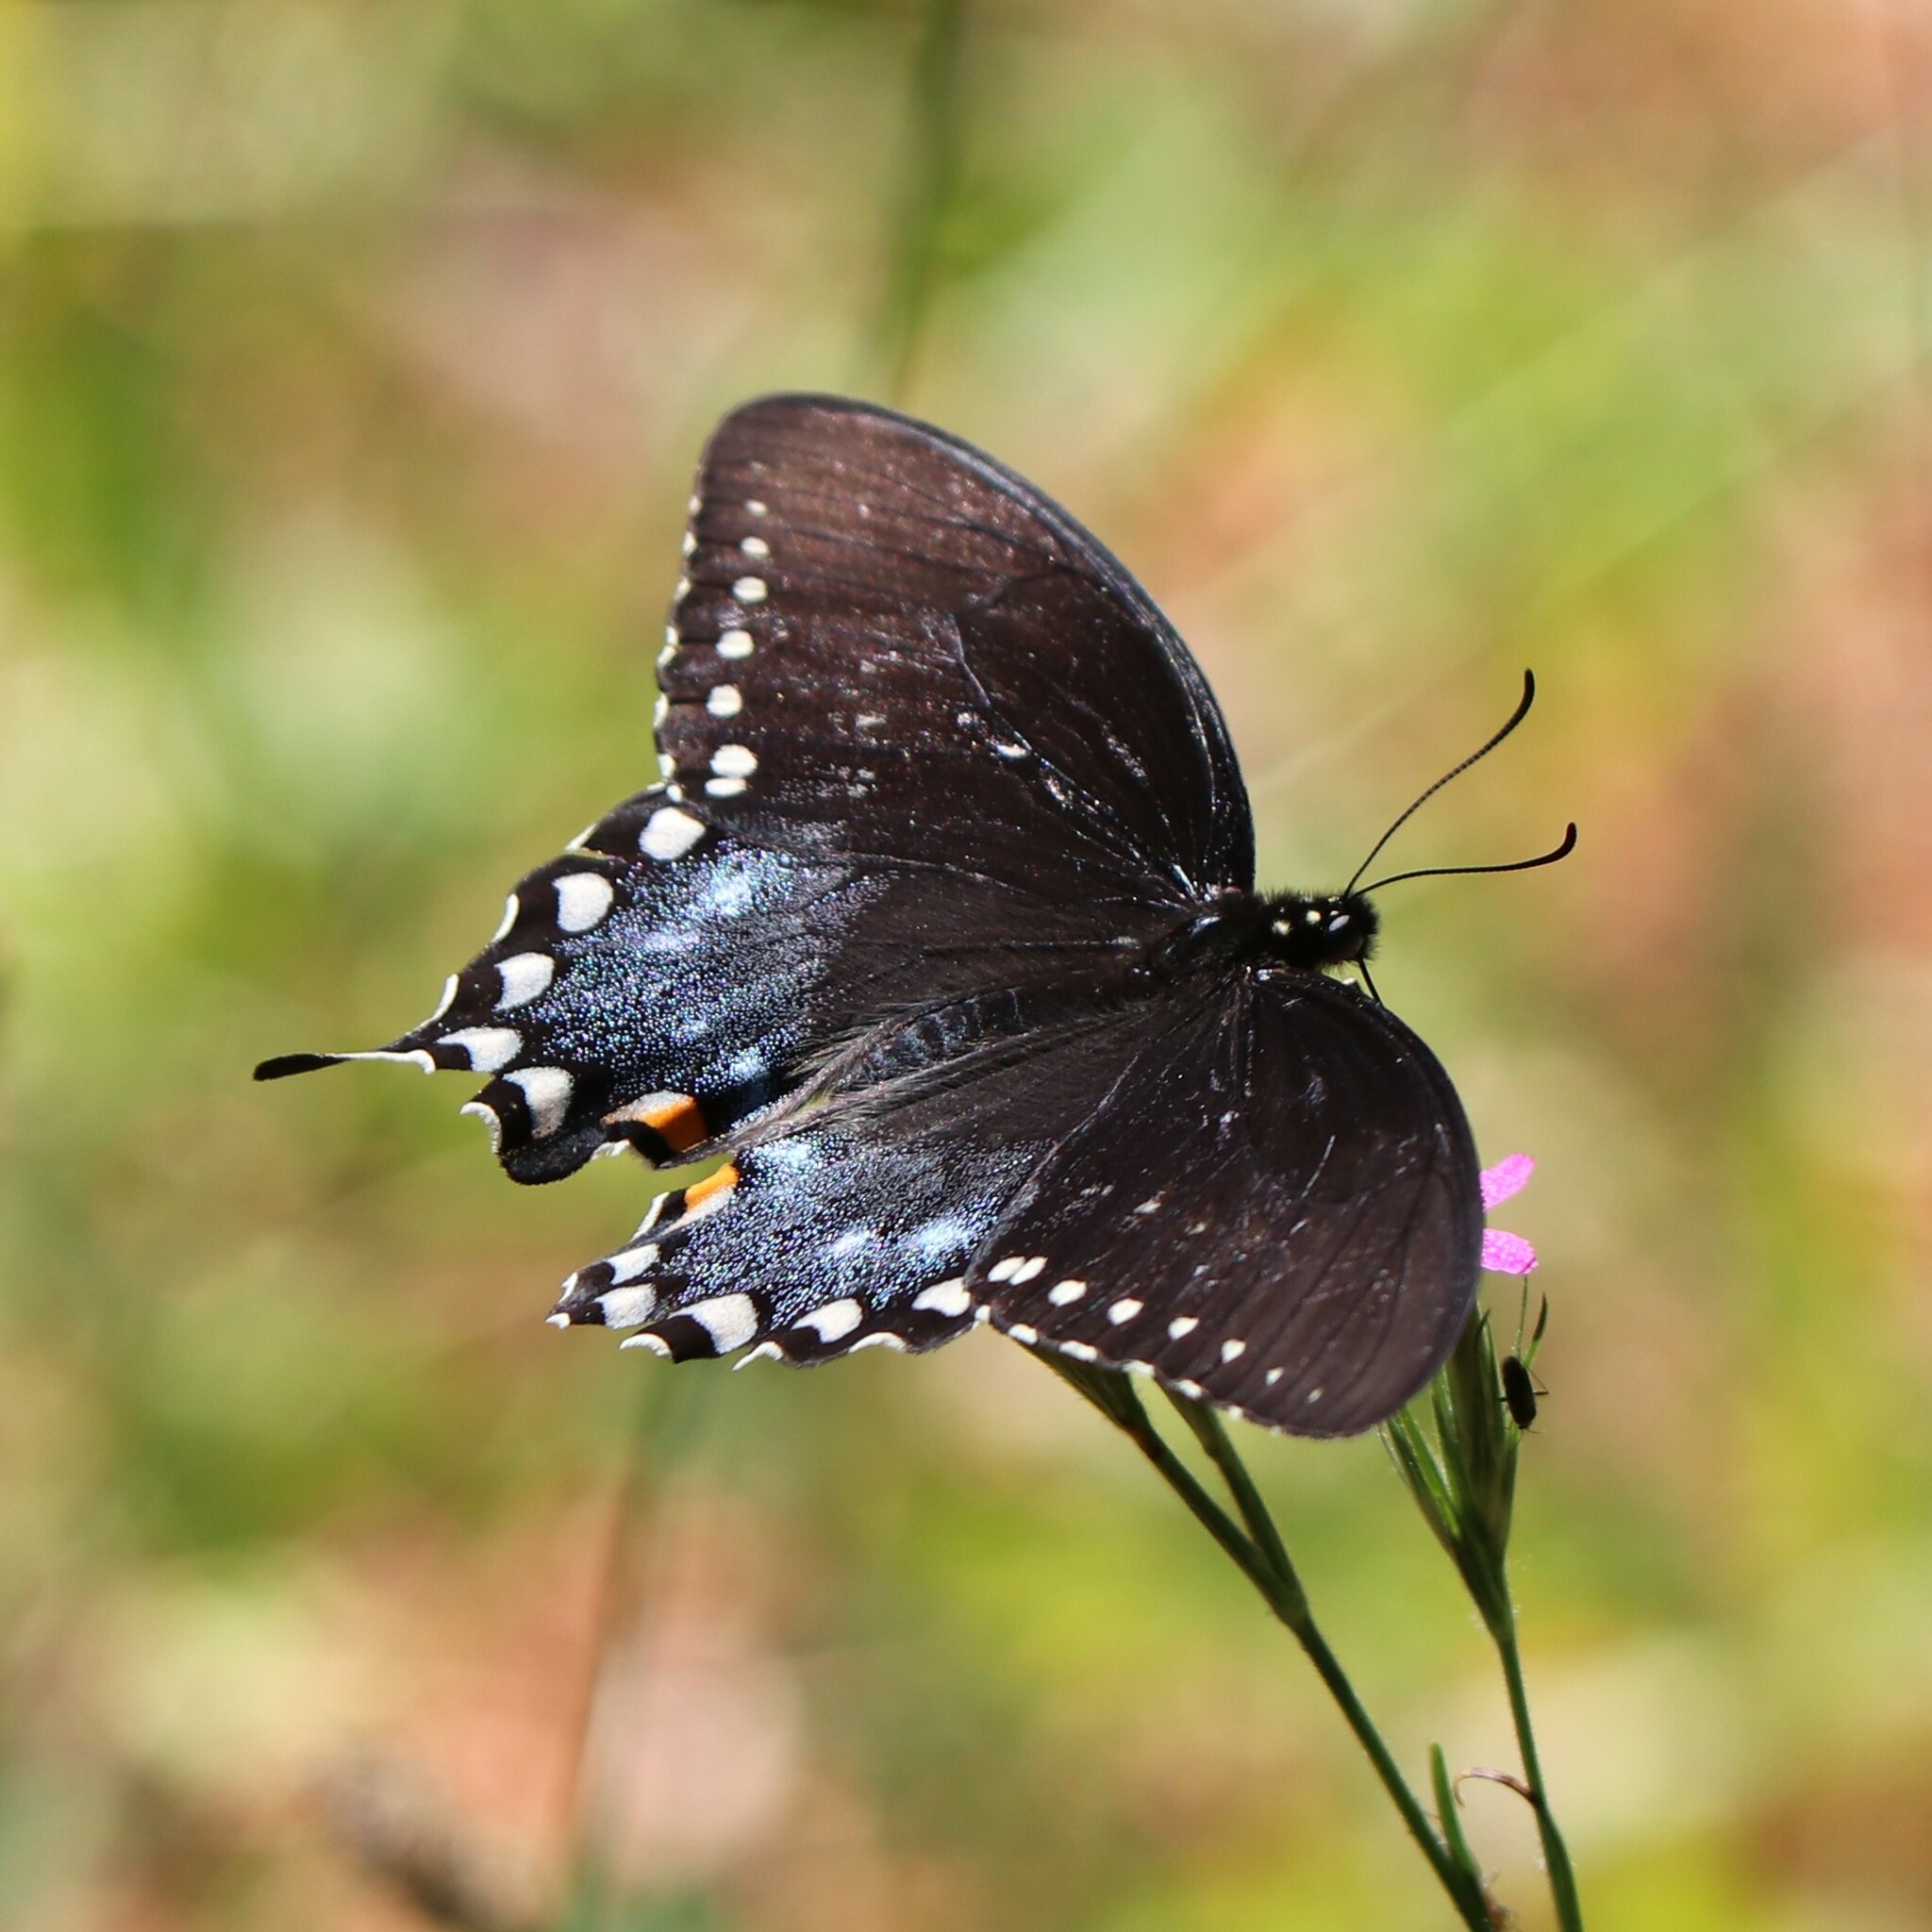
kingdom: Animalia
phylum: Arthropoda
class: Insecta
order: Lepidoptera
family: Papilionidae
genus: Papilio
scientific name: Papilio troilus
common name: Spicebush swallowtail
